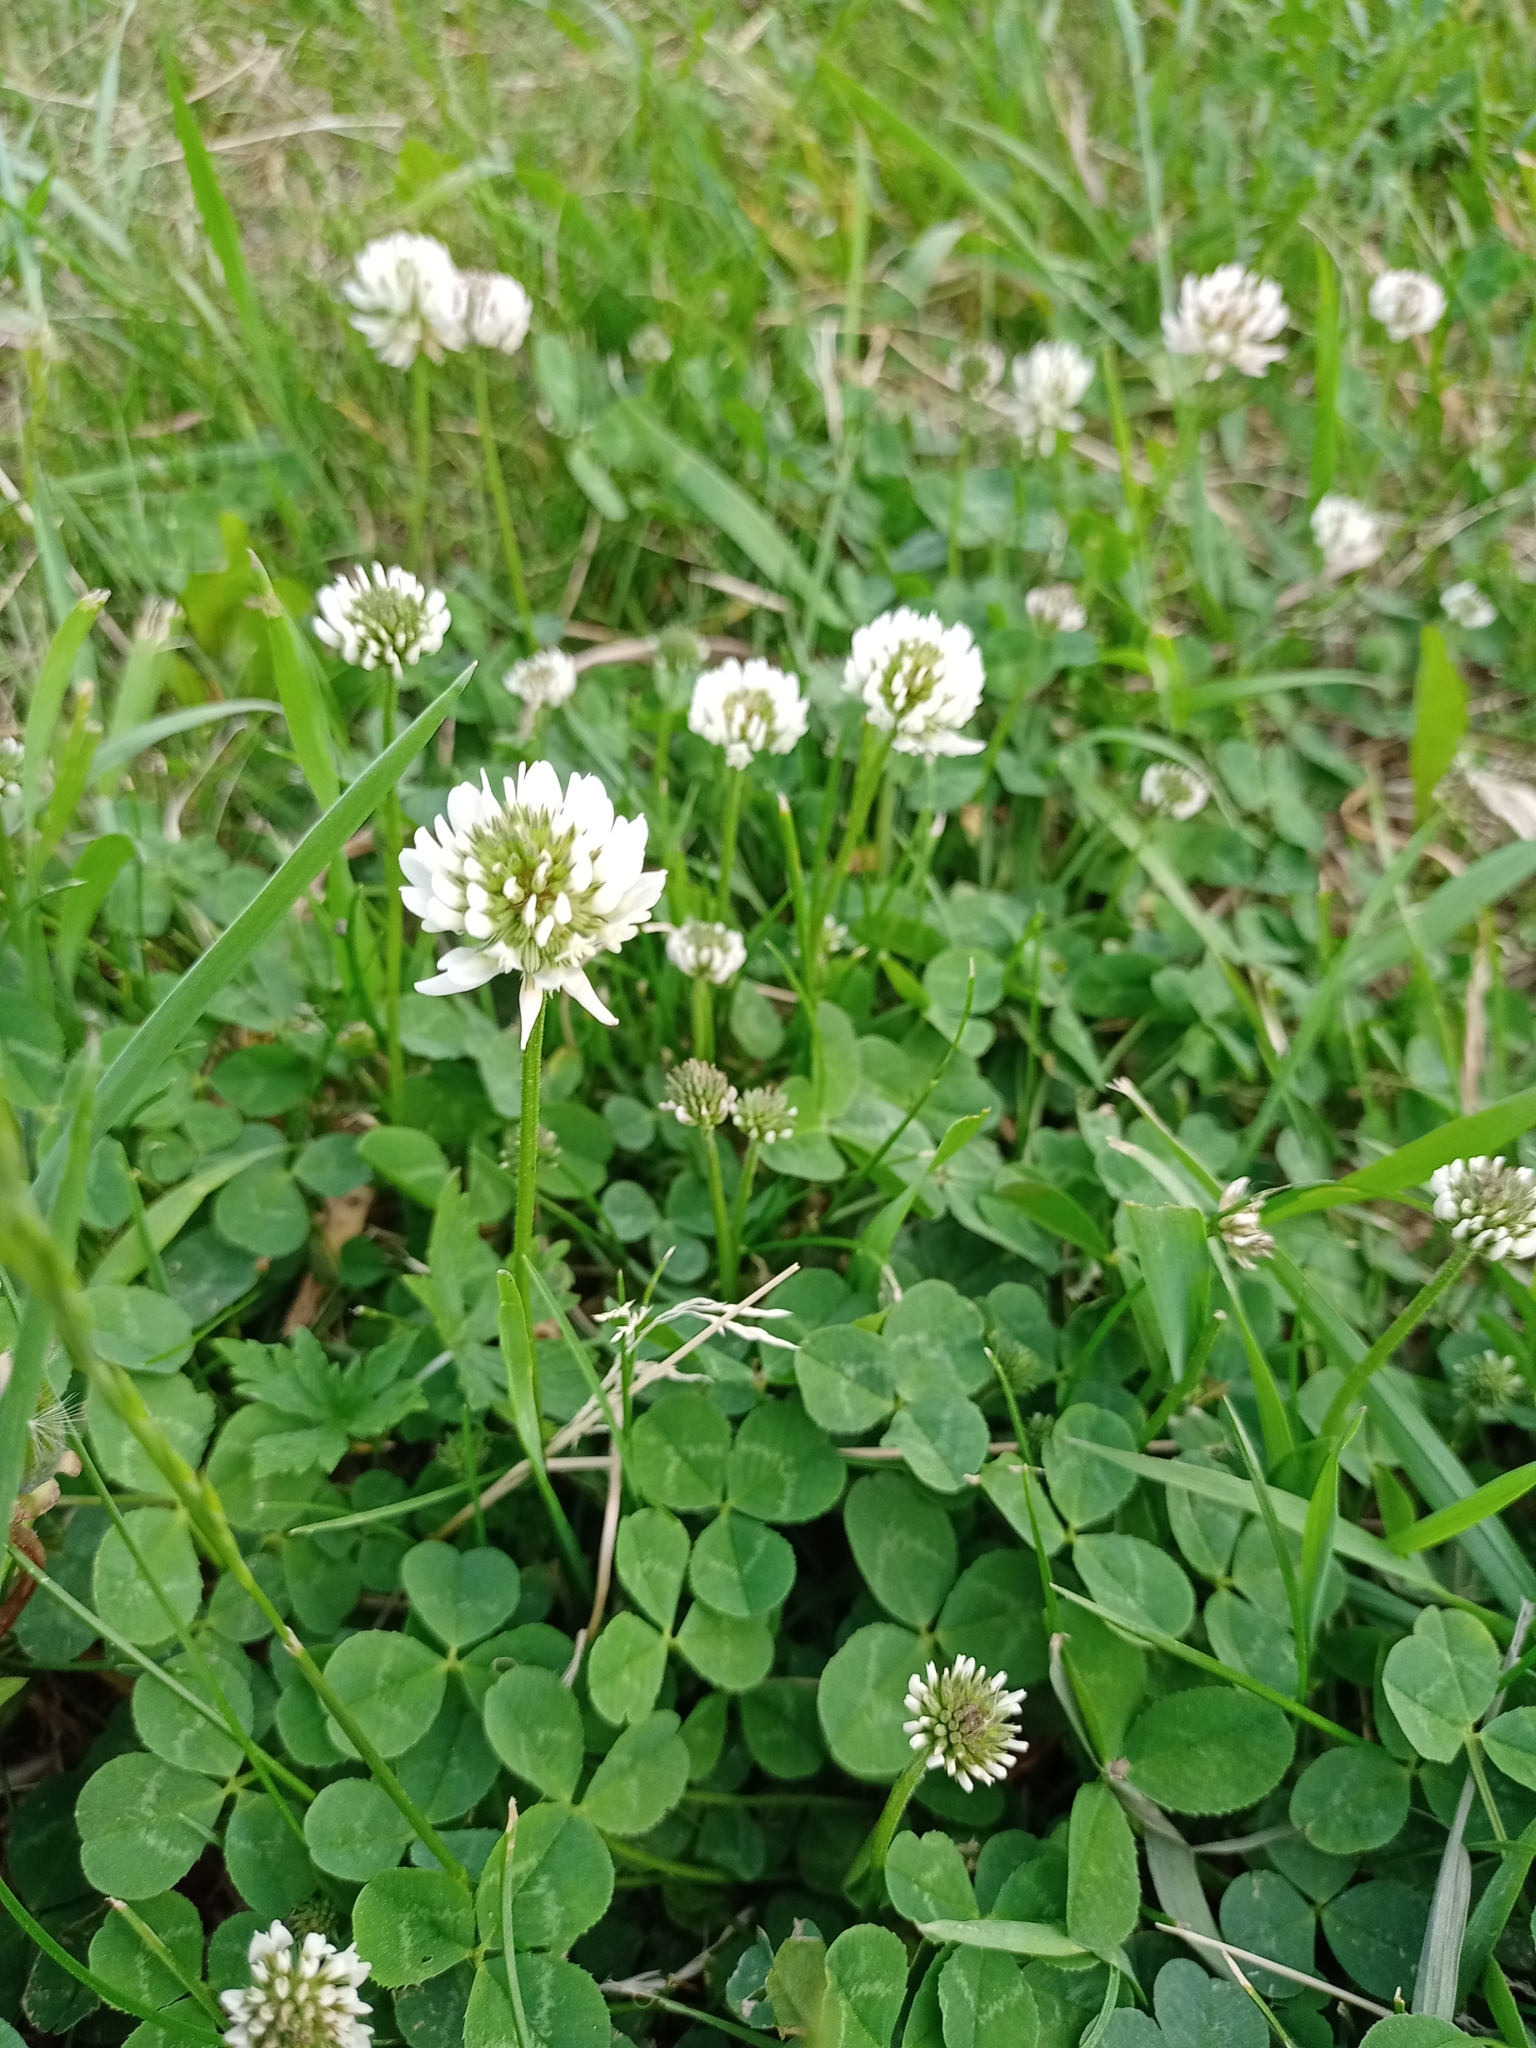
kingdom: Plantae
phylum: Tracheophyta
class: Magnoliopsida
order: Fabales
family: Fabaceae
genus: Trifolium
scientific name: Trifolium repens
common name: White clover
